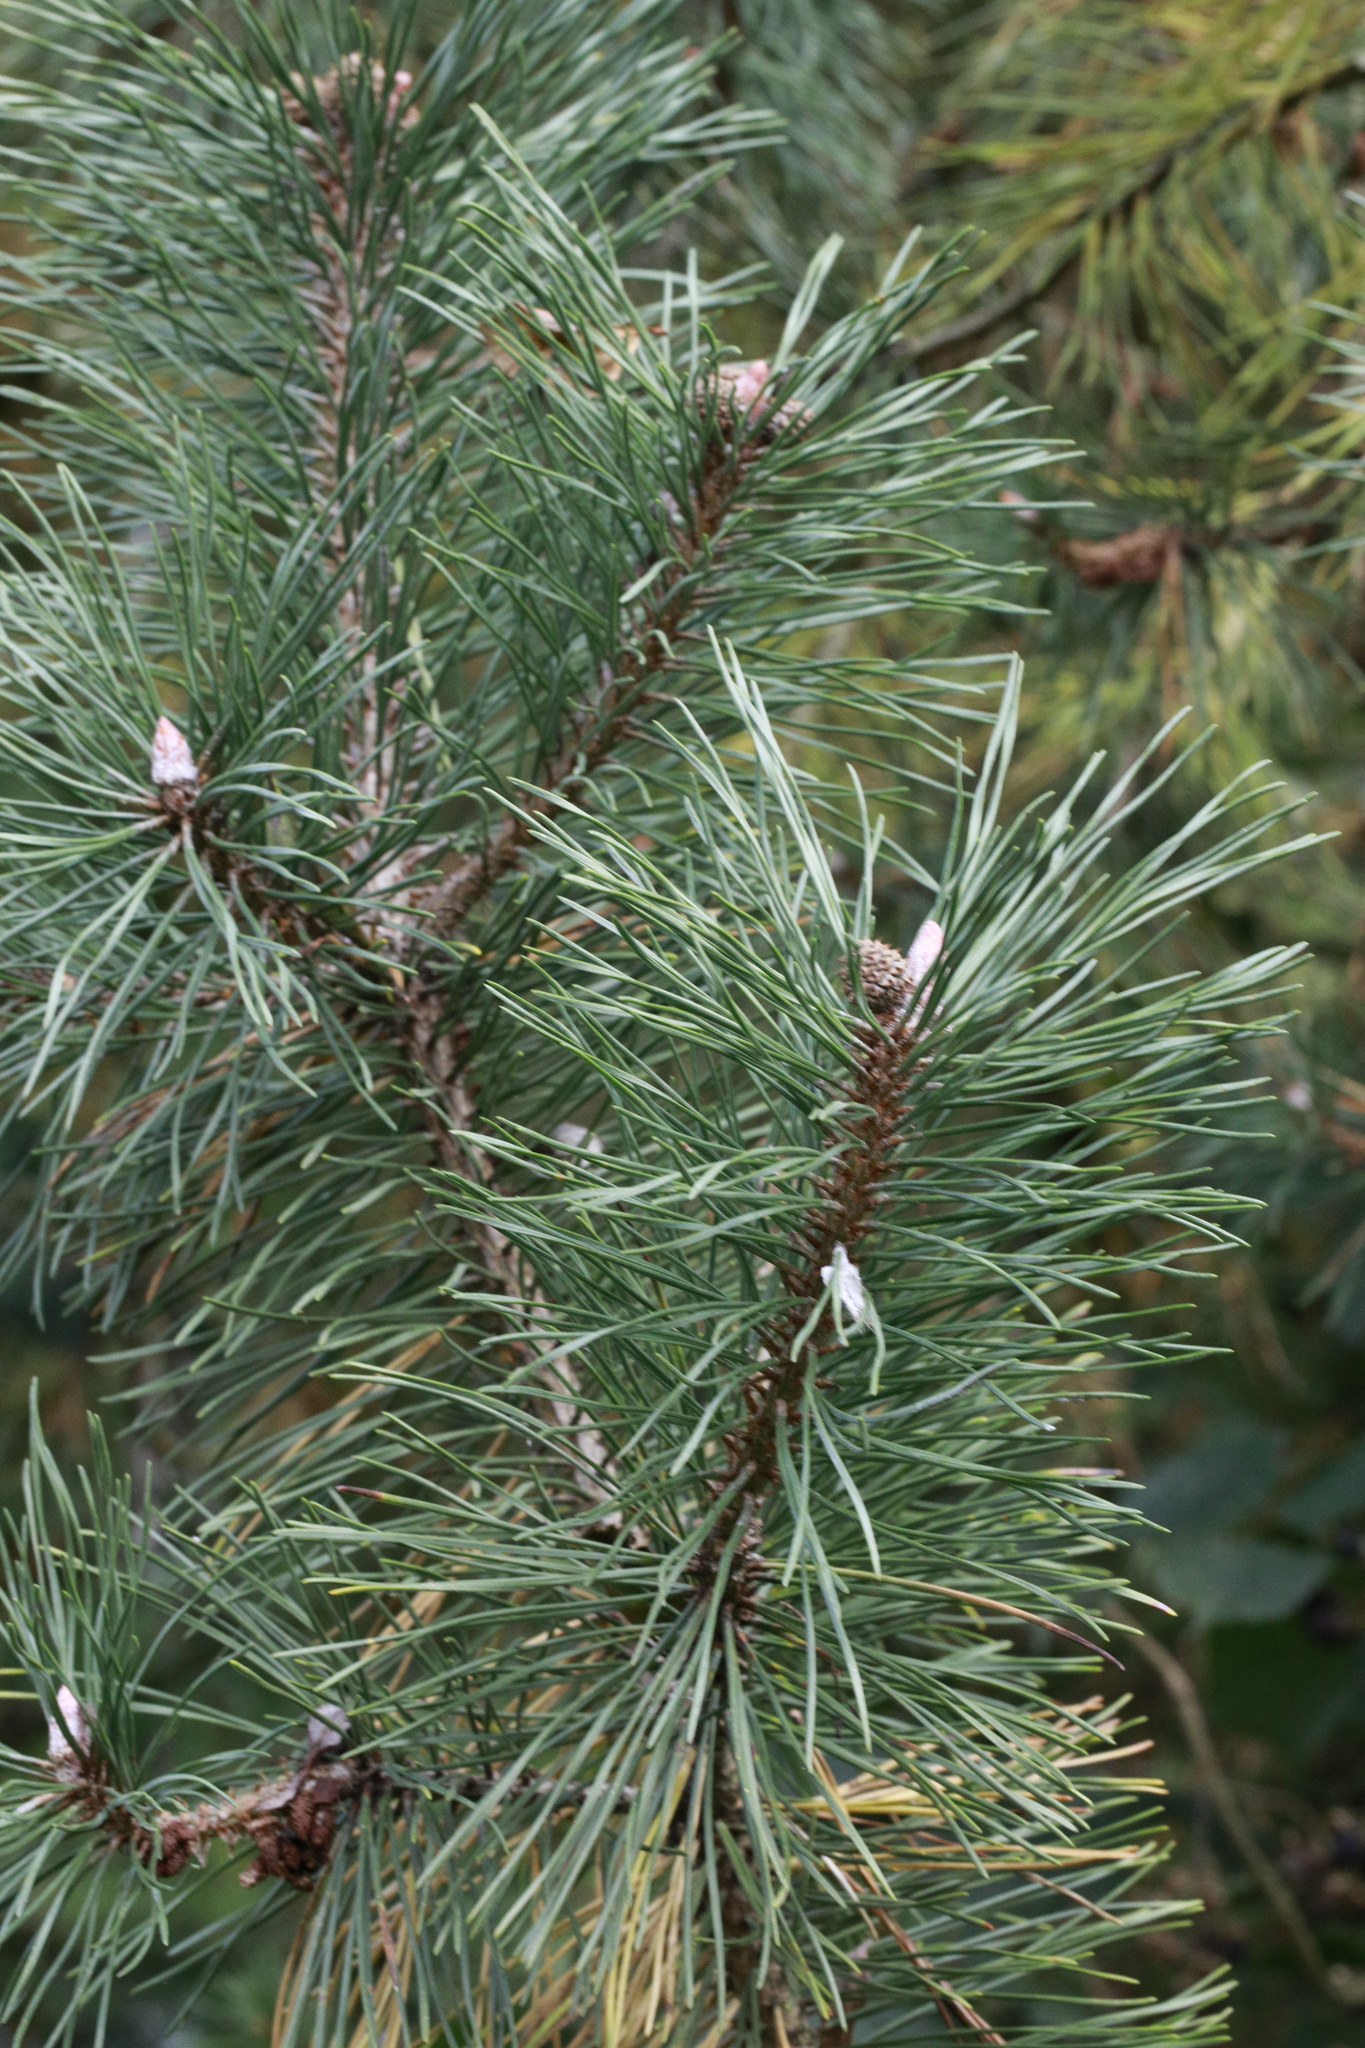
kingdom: Plantae
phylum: Tracheophyta
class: Pinopsida
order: Pinales
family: Pinaceae
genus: Pinus
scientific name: Pinus sylvestris
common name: Scots pine
